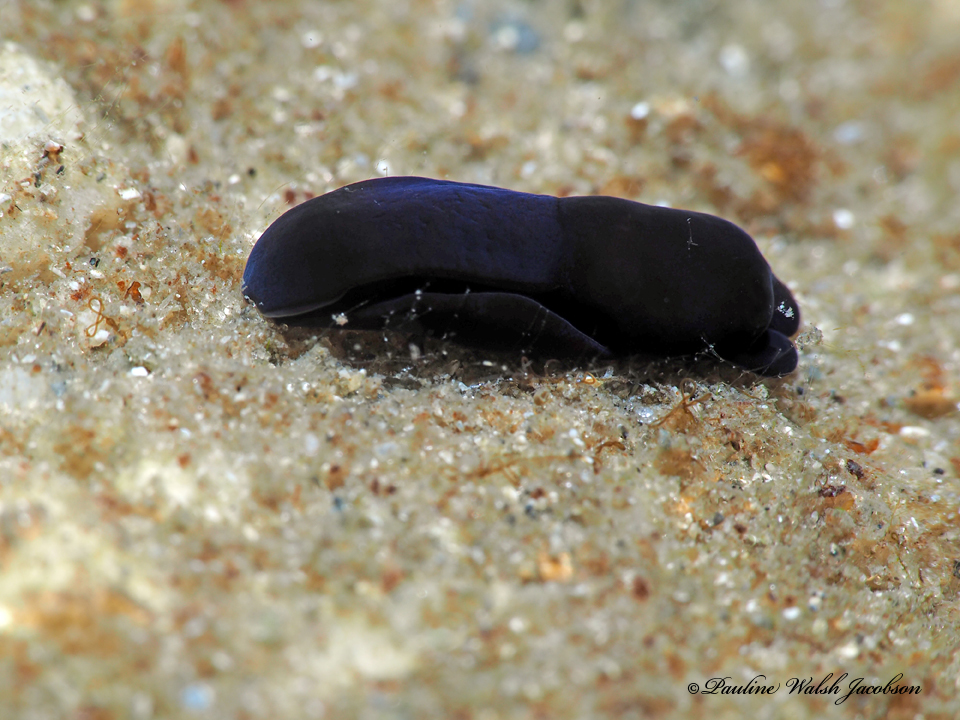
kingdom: Animalia
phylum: Mollusca
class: Gastropoda
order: Cephalaspidea
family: Aglajidae
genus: Nakamigawaia
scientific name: Nakamigawaia felis
